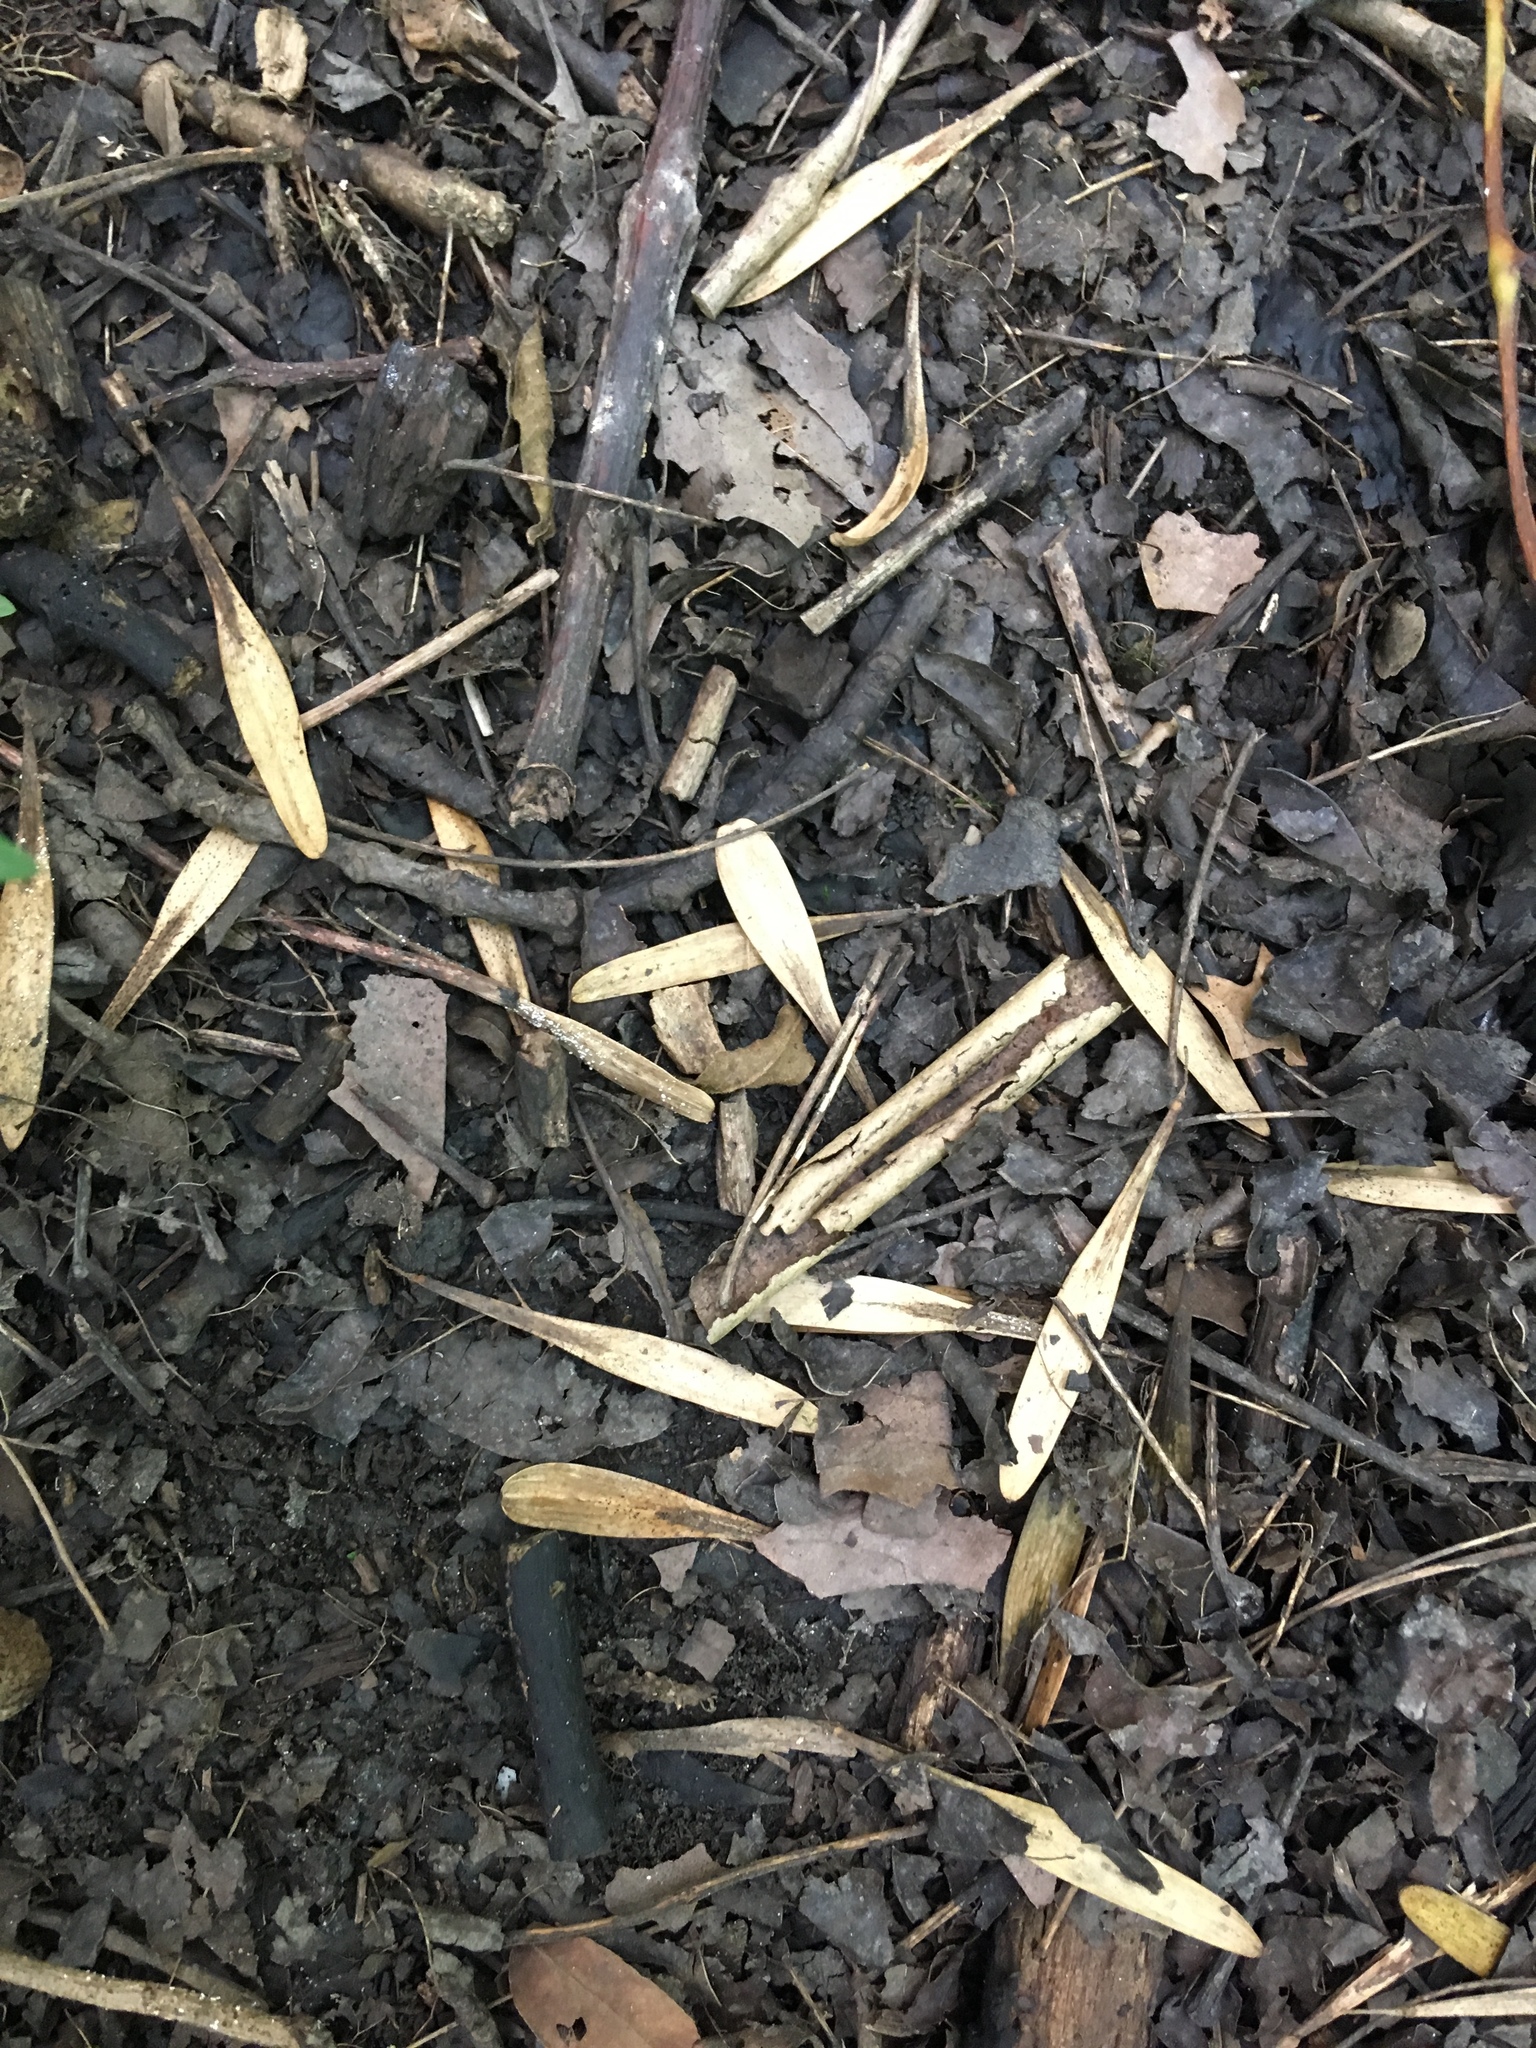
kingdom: Plantae
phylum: Tracheophyta
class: Magnoliopsida
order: Lamiales
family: Oleaceae
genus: Fraxinus
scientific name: Fraxinus pennsylvanica
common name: Green ash
